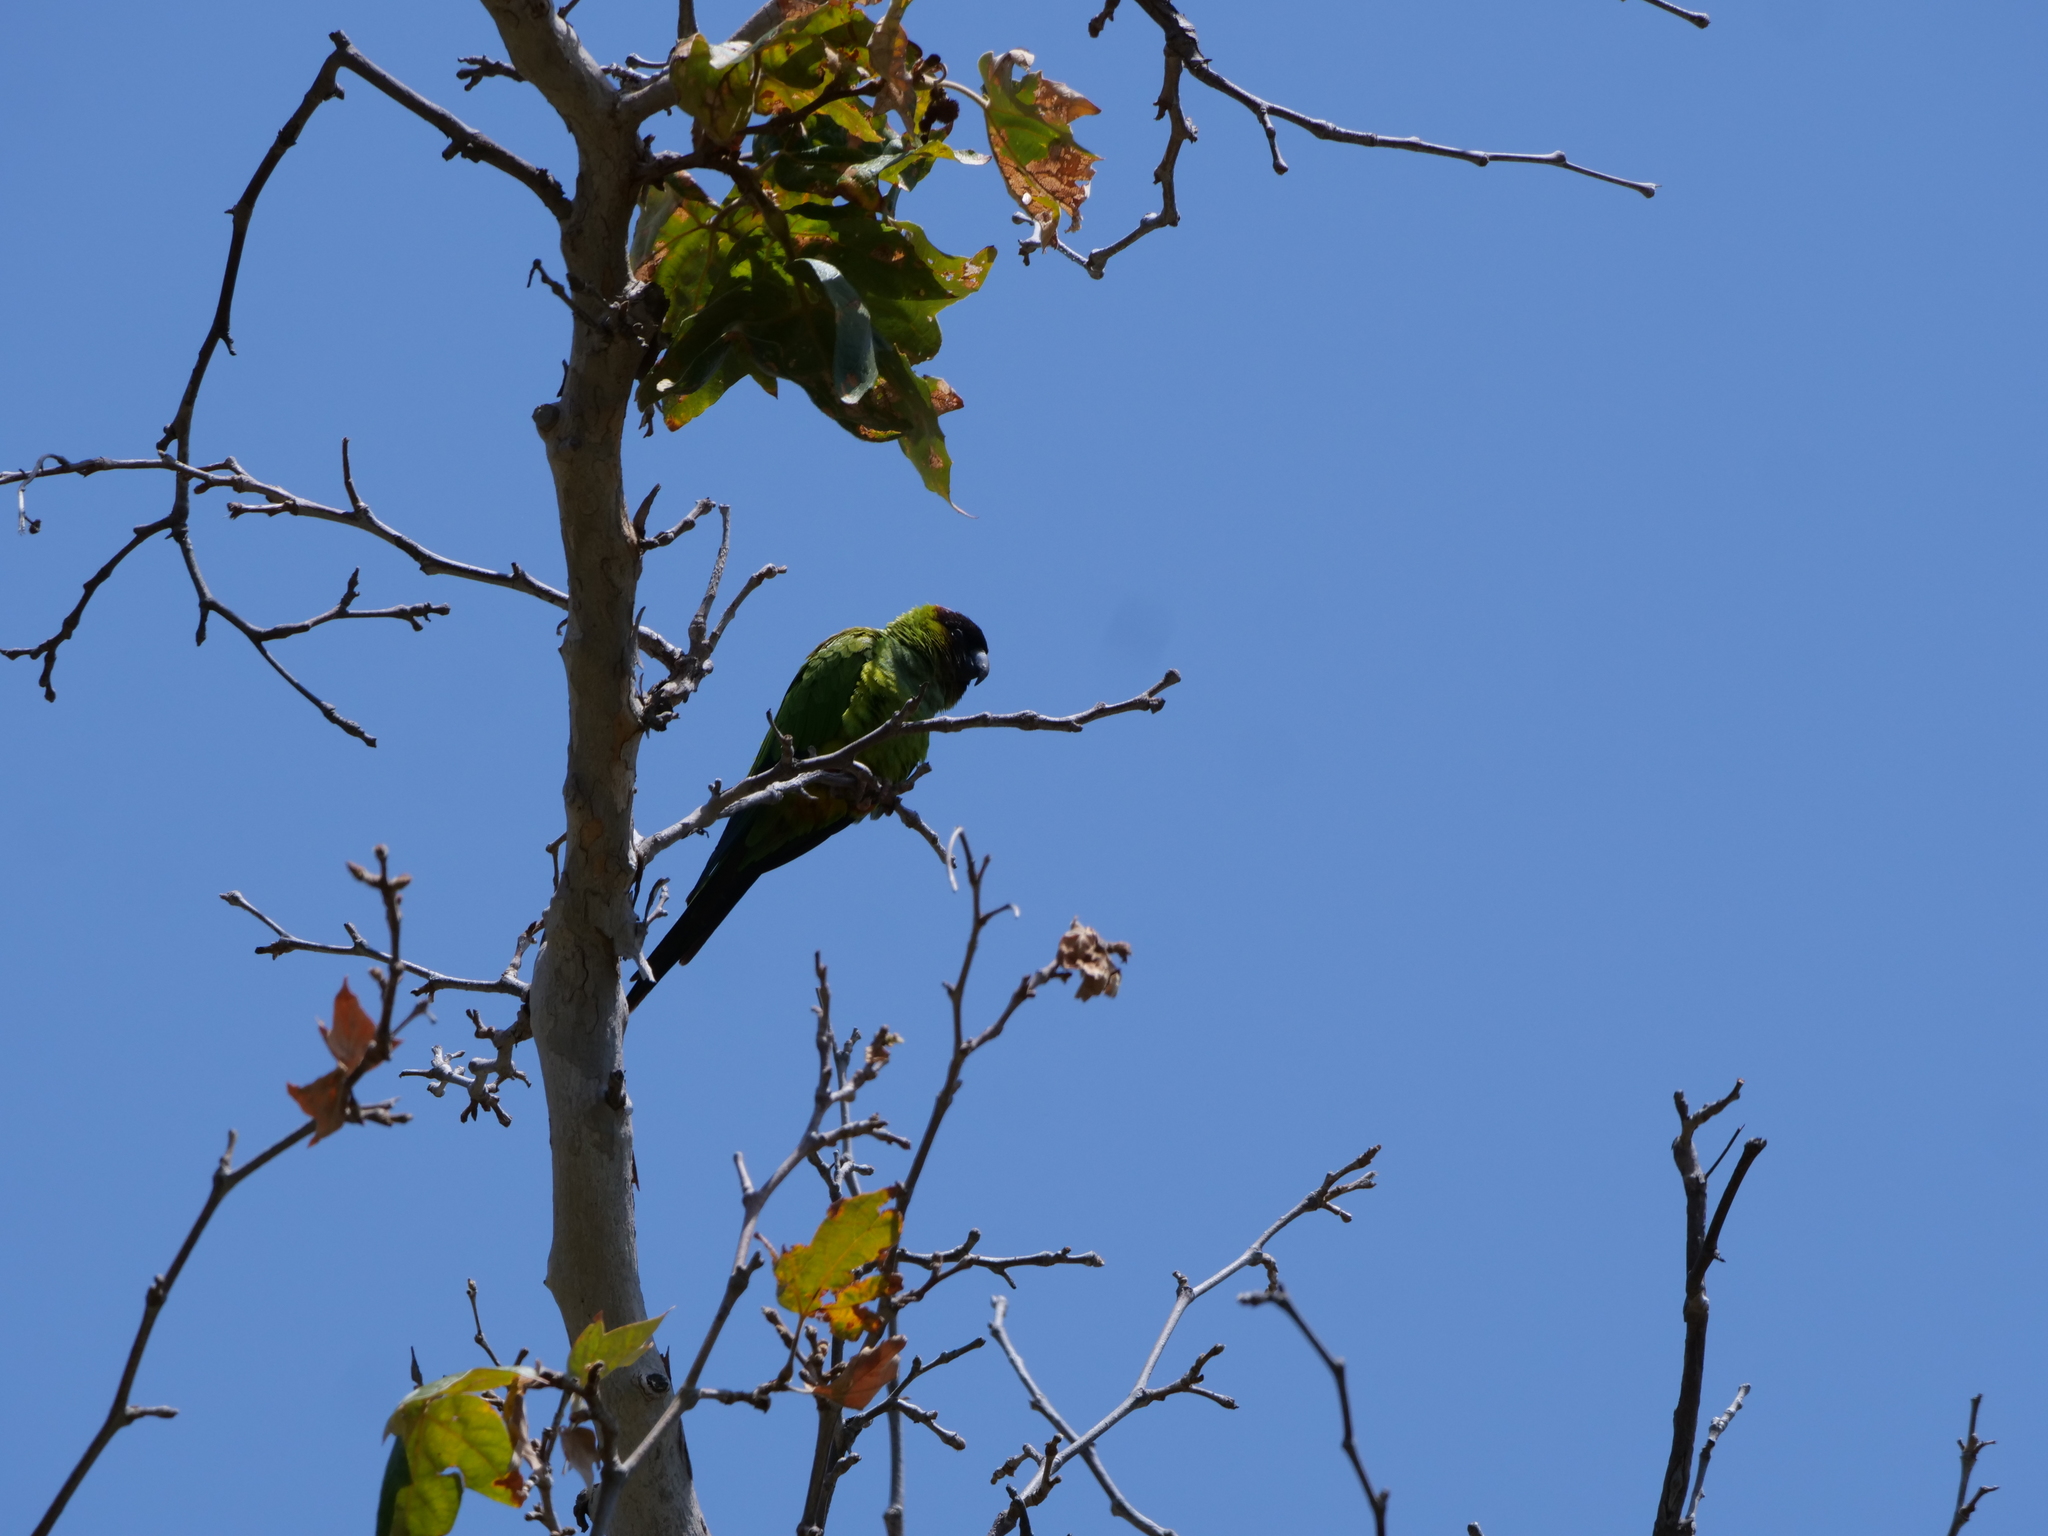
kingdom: Animalia
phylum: Chordata
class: Aves
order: Psittaciformes
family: Psittacidae
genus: Nandayus
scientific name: Nandayus nenday
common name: Nanday parakeet
